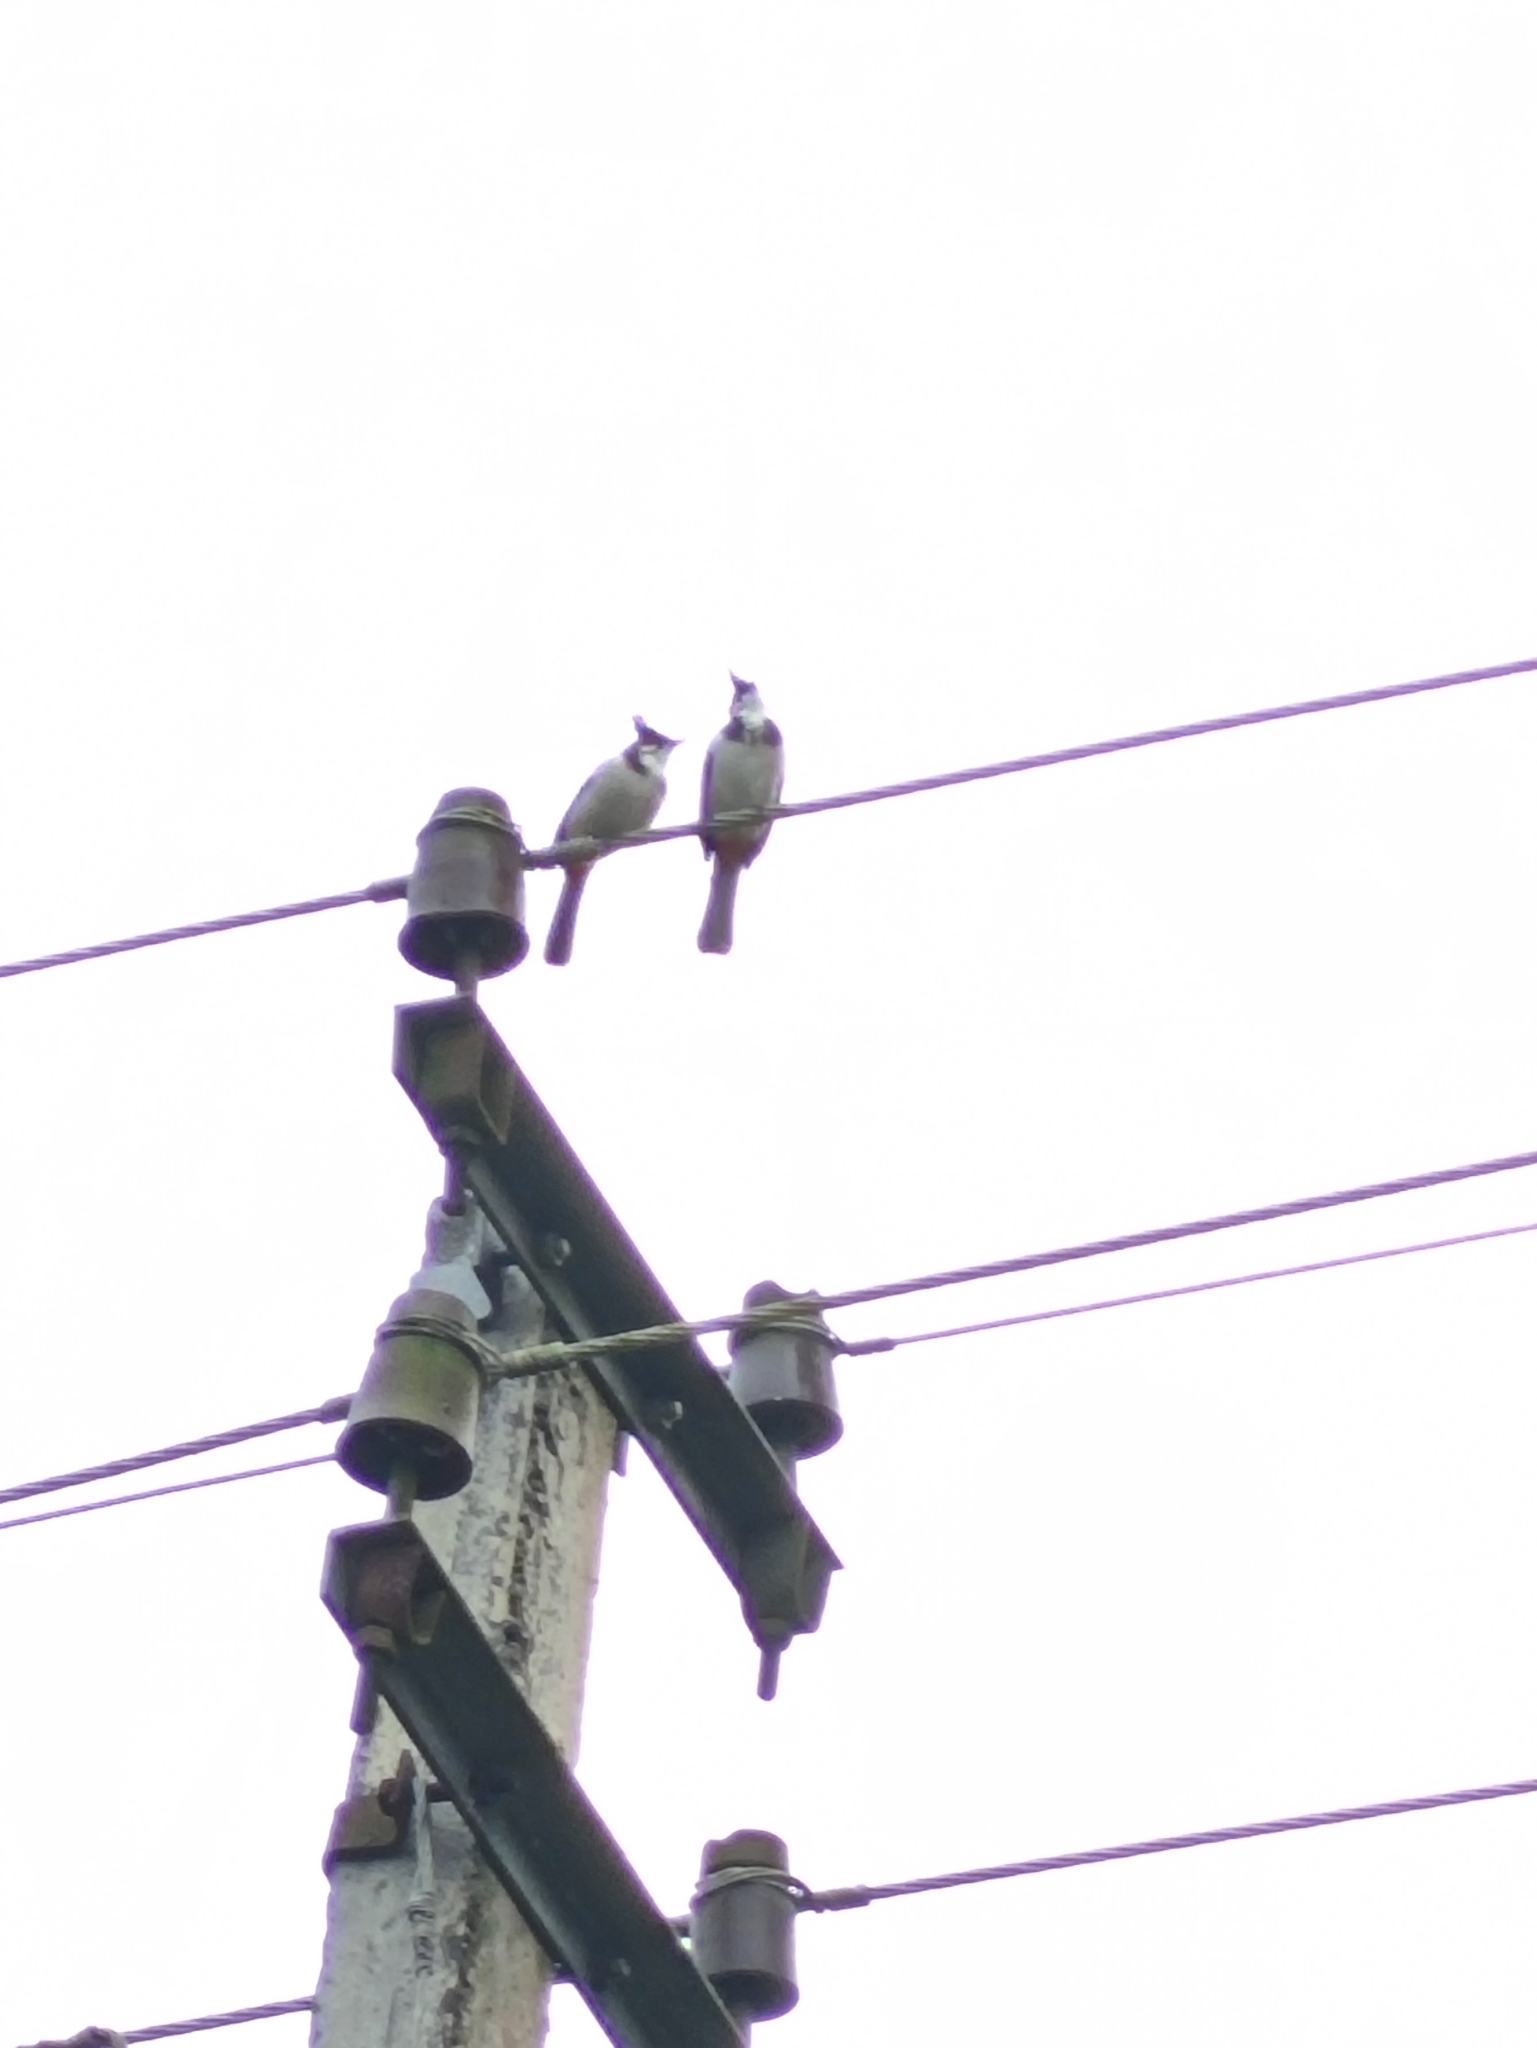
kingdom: Animalia
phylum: Chordata
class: Aves
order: Passeriformes
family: Pycnonotidae
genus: Pycnonotus
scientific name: Pycnonotus jocosus
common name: Red-whiskered bulbul
